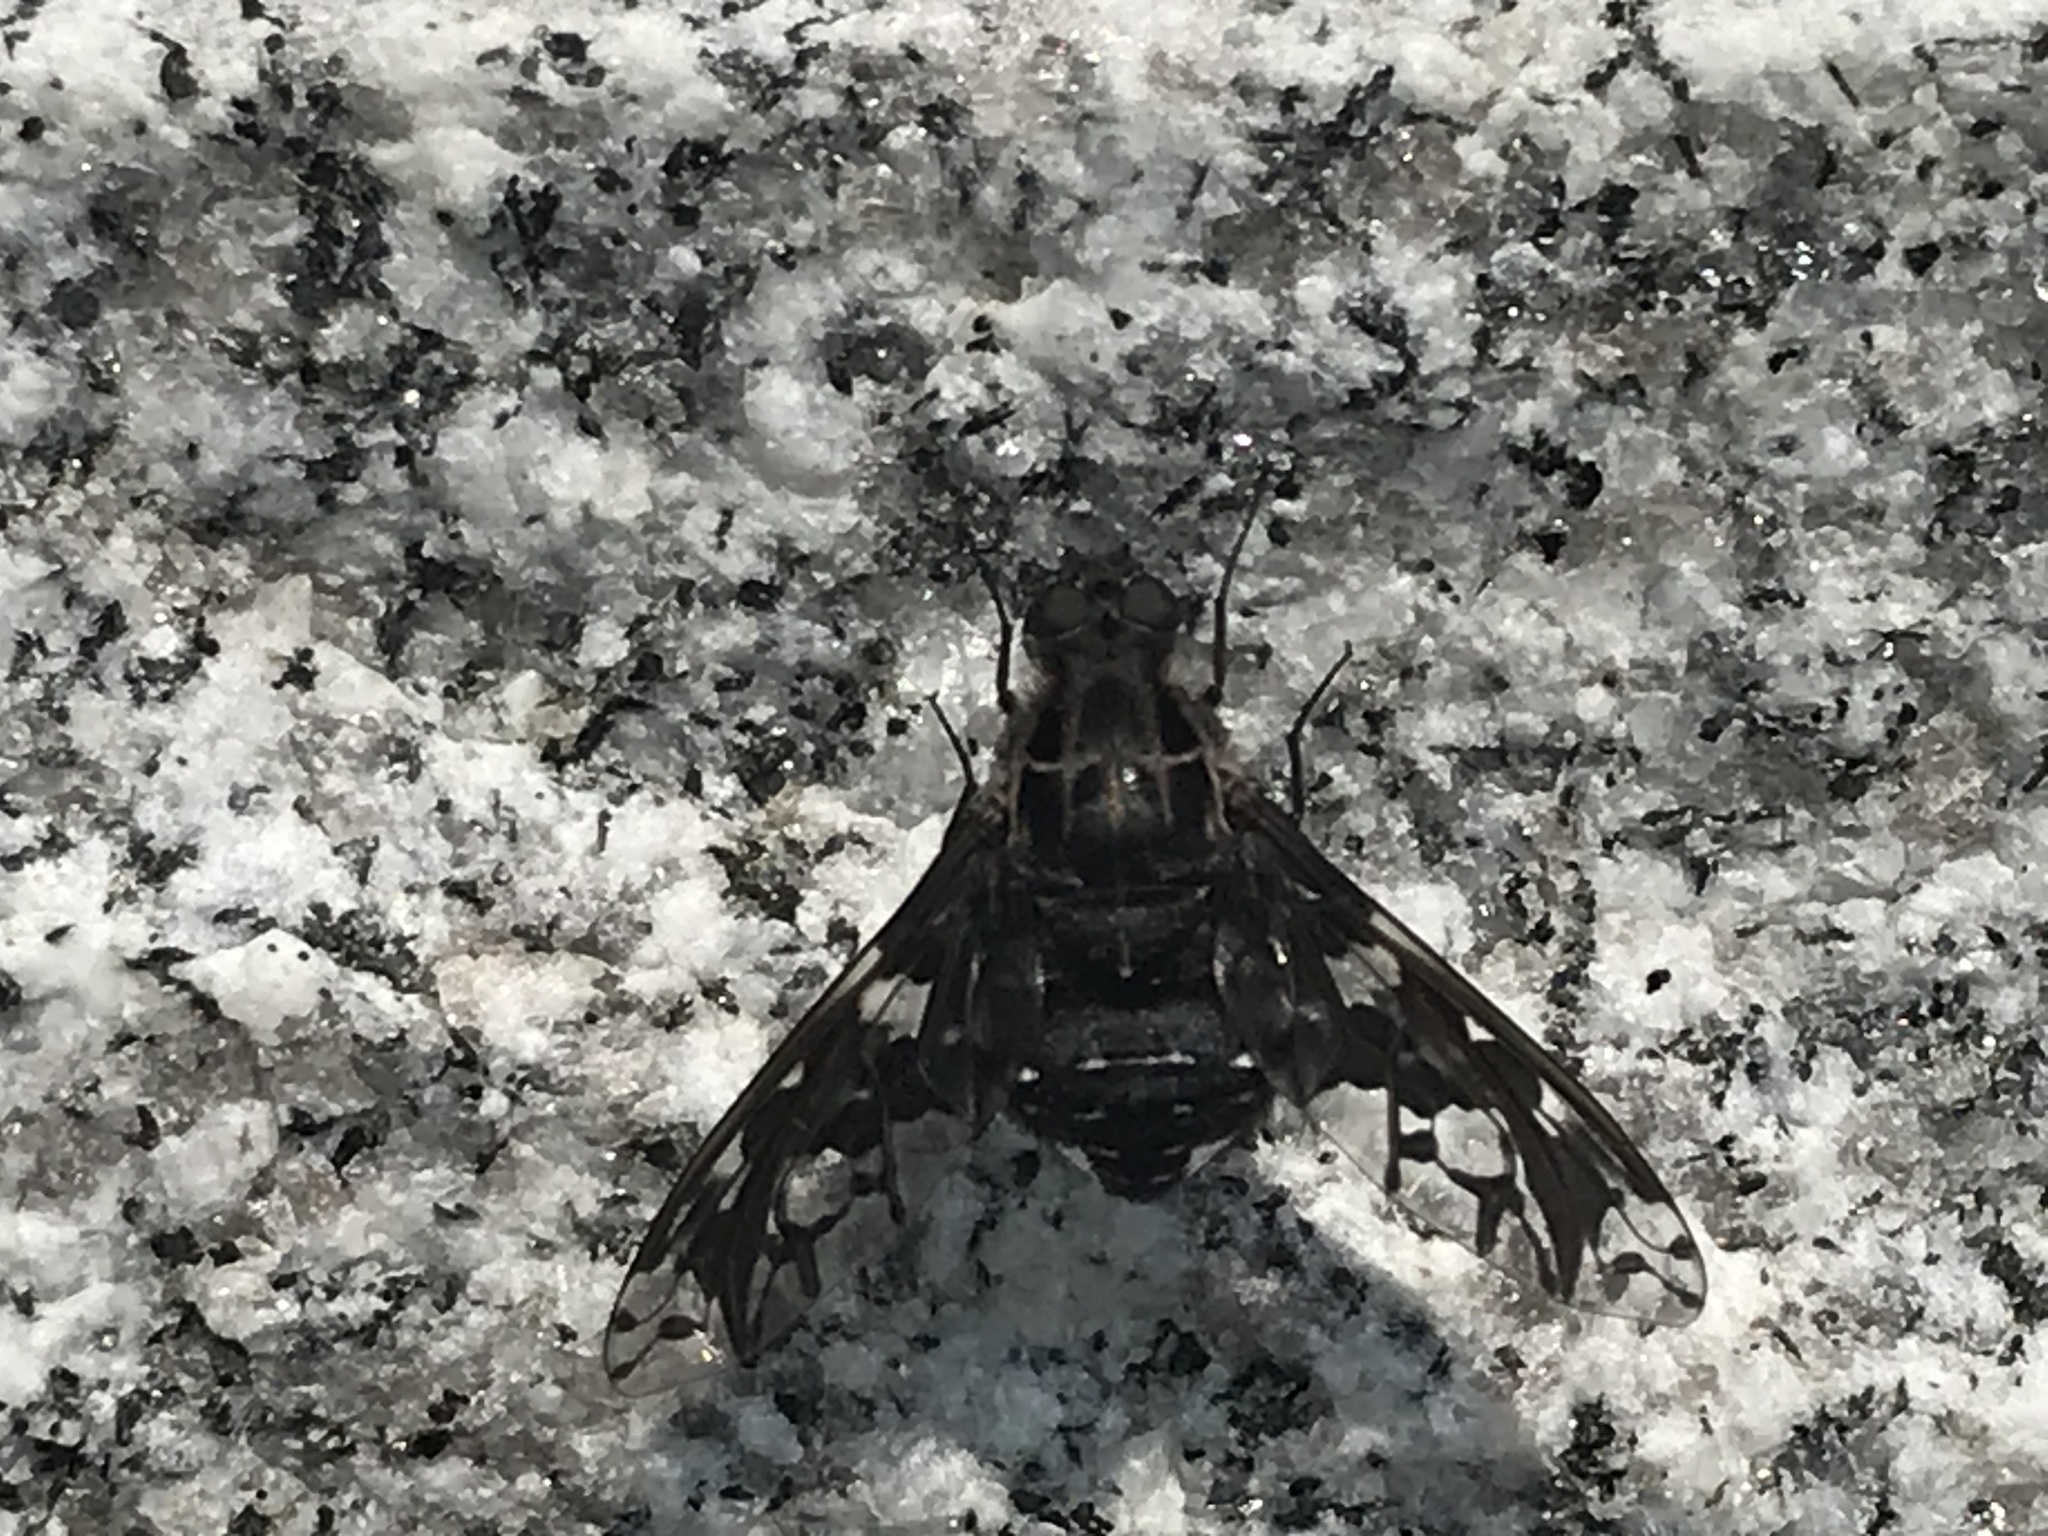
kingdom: Animalia
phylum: Arthropoda
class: Insecta
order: Diptera
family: Bombyliidae
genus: Xenox
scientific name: Xenox tigrinus
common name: Tiger bee fly
